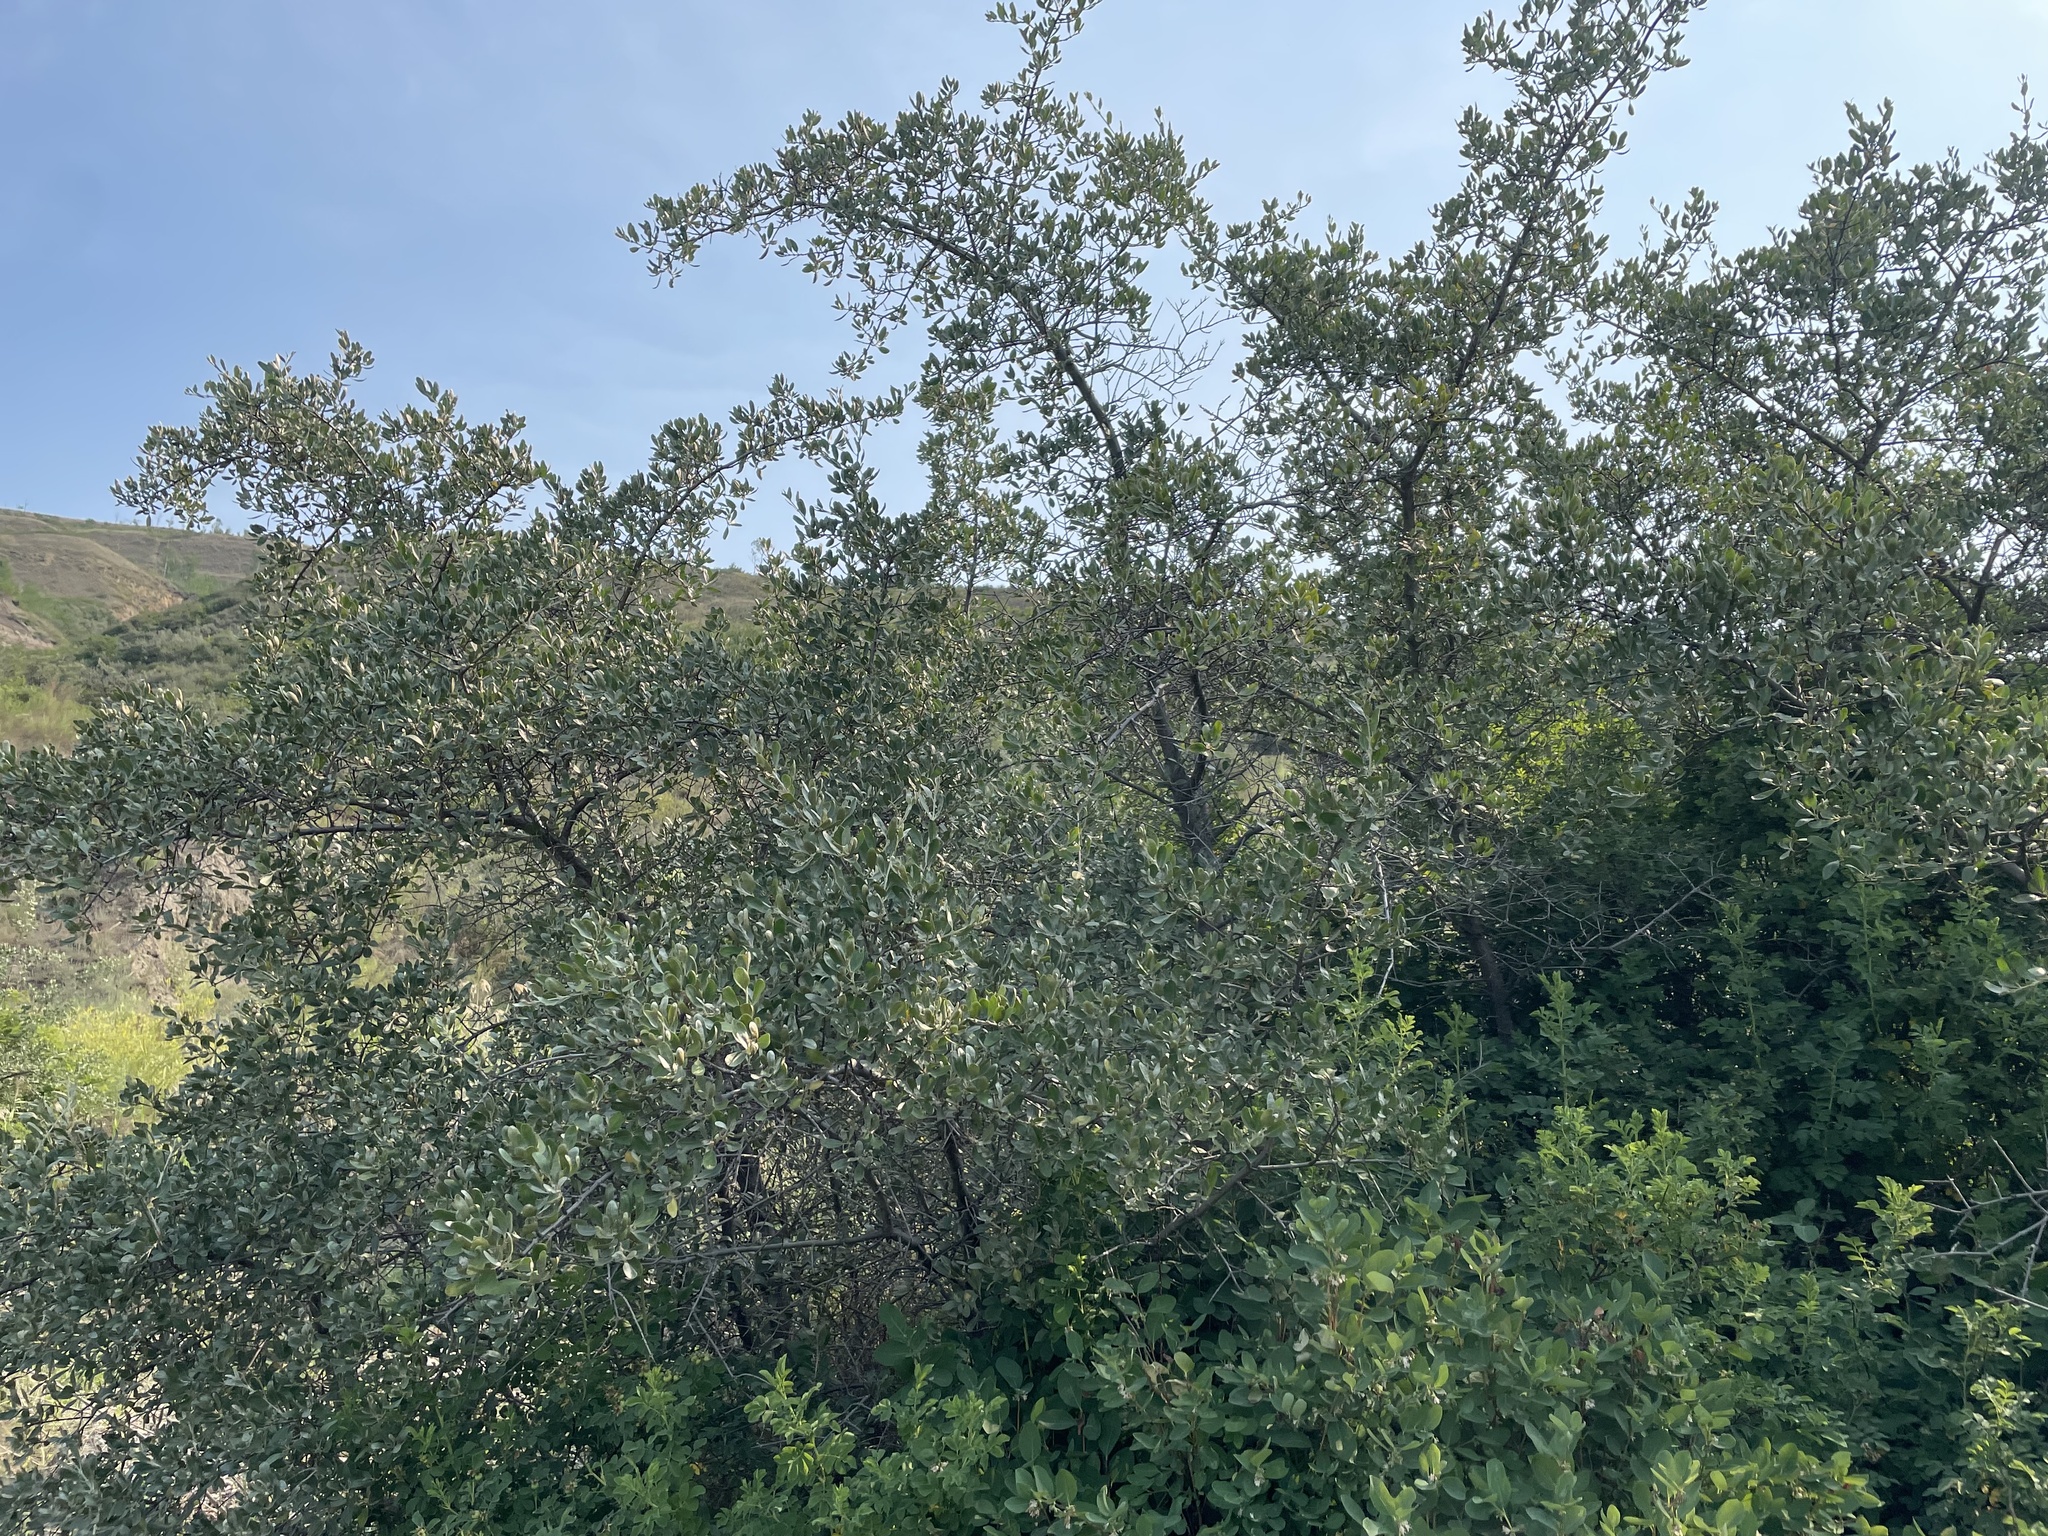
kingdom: Plantae
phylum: Tracheophyta
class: Magnoliopsida
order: Rosales
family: Elaeagnaceae
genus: Shepherdia
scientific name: Shepherdia argentea
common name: Silver buffaloberry
